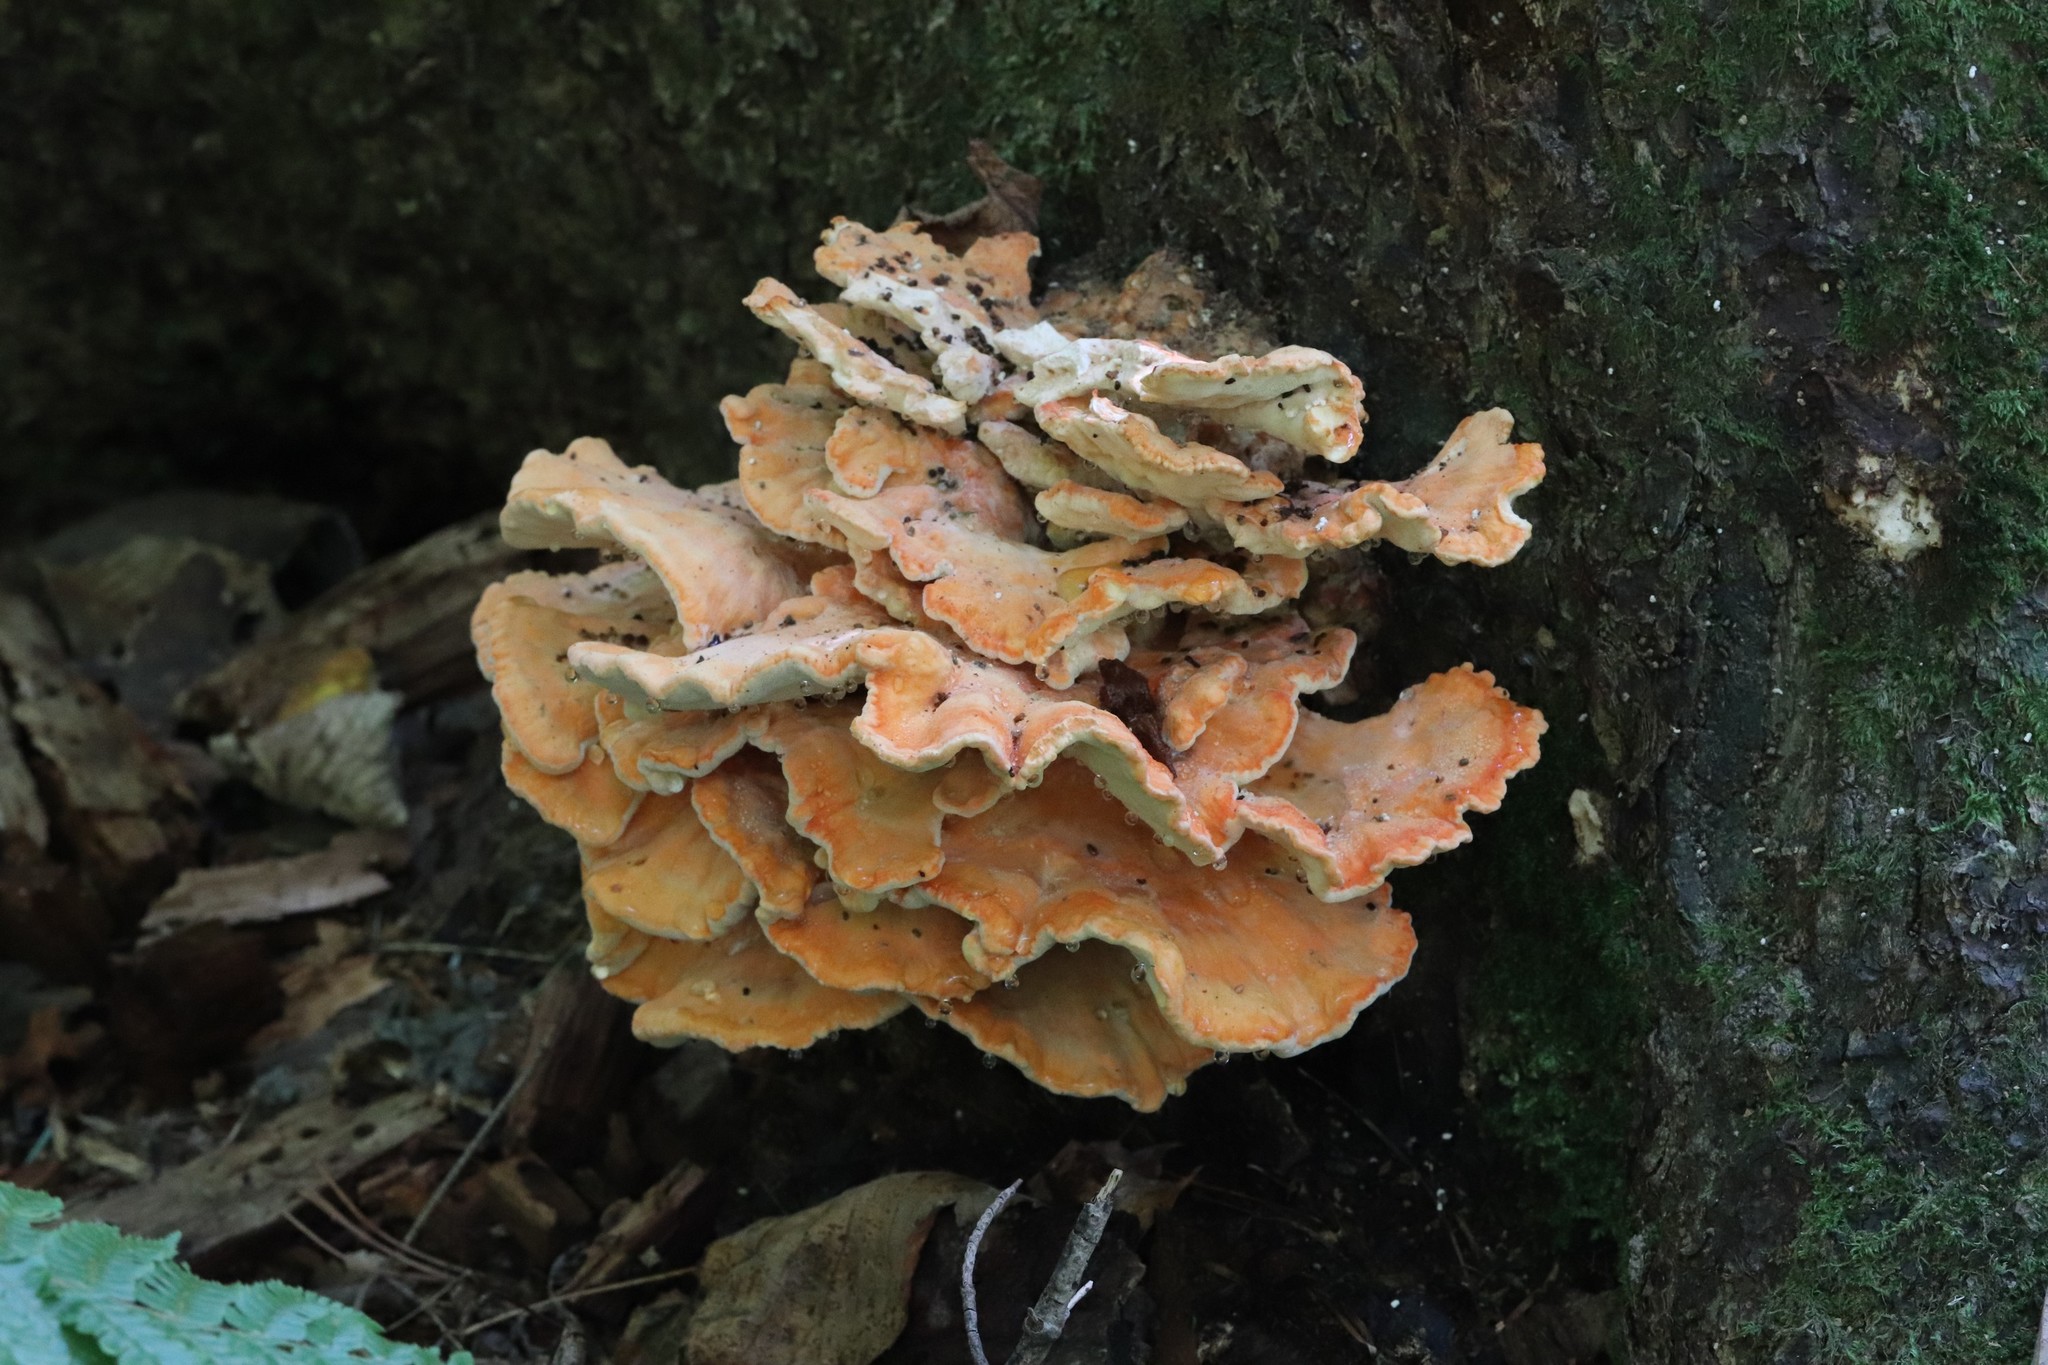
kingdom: Fungi
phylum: Basidiomycota
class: Agaricomycetes
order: Polyporales
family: Laetiporaceae
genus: Laetiporus
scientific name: Laetiporus montanus
